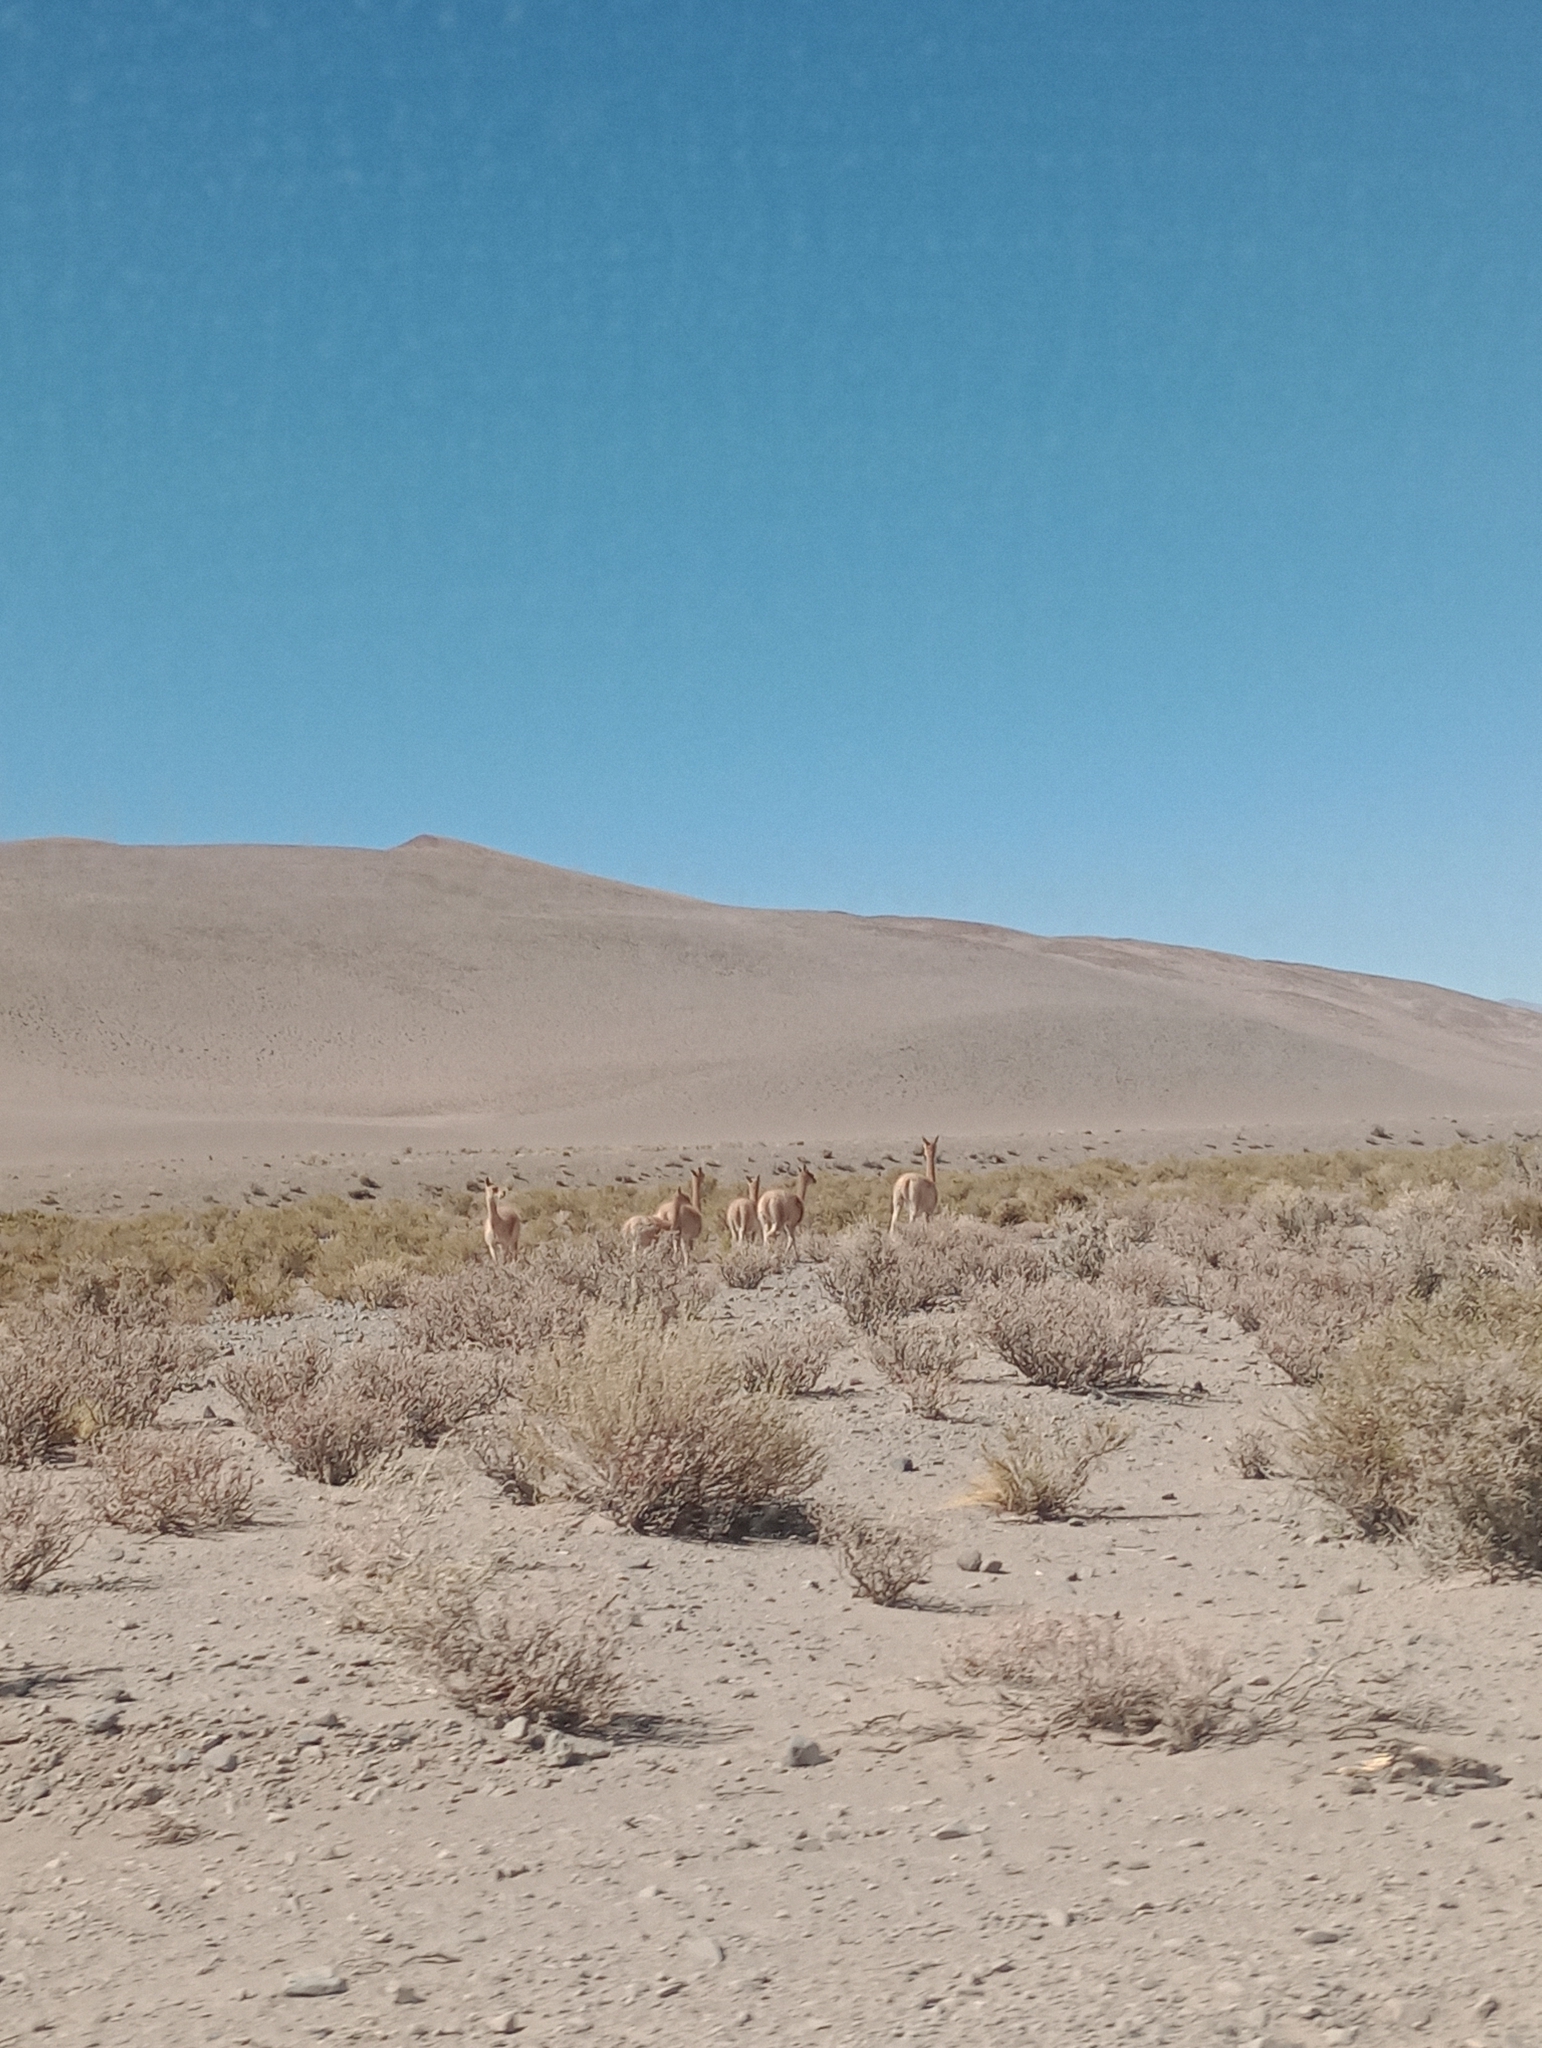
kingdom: Animalia
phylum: Chordata
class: Mammalia
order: Artiodactyla
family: Camelidae
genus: Vicugna
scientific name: Vicugna vicugna
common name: Vicugna
